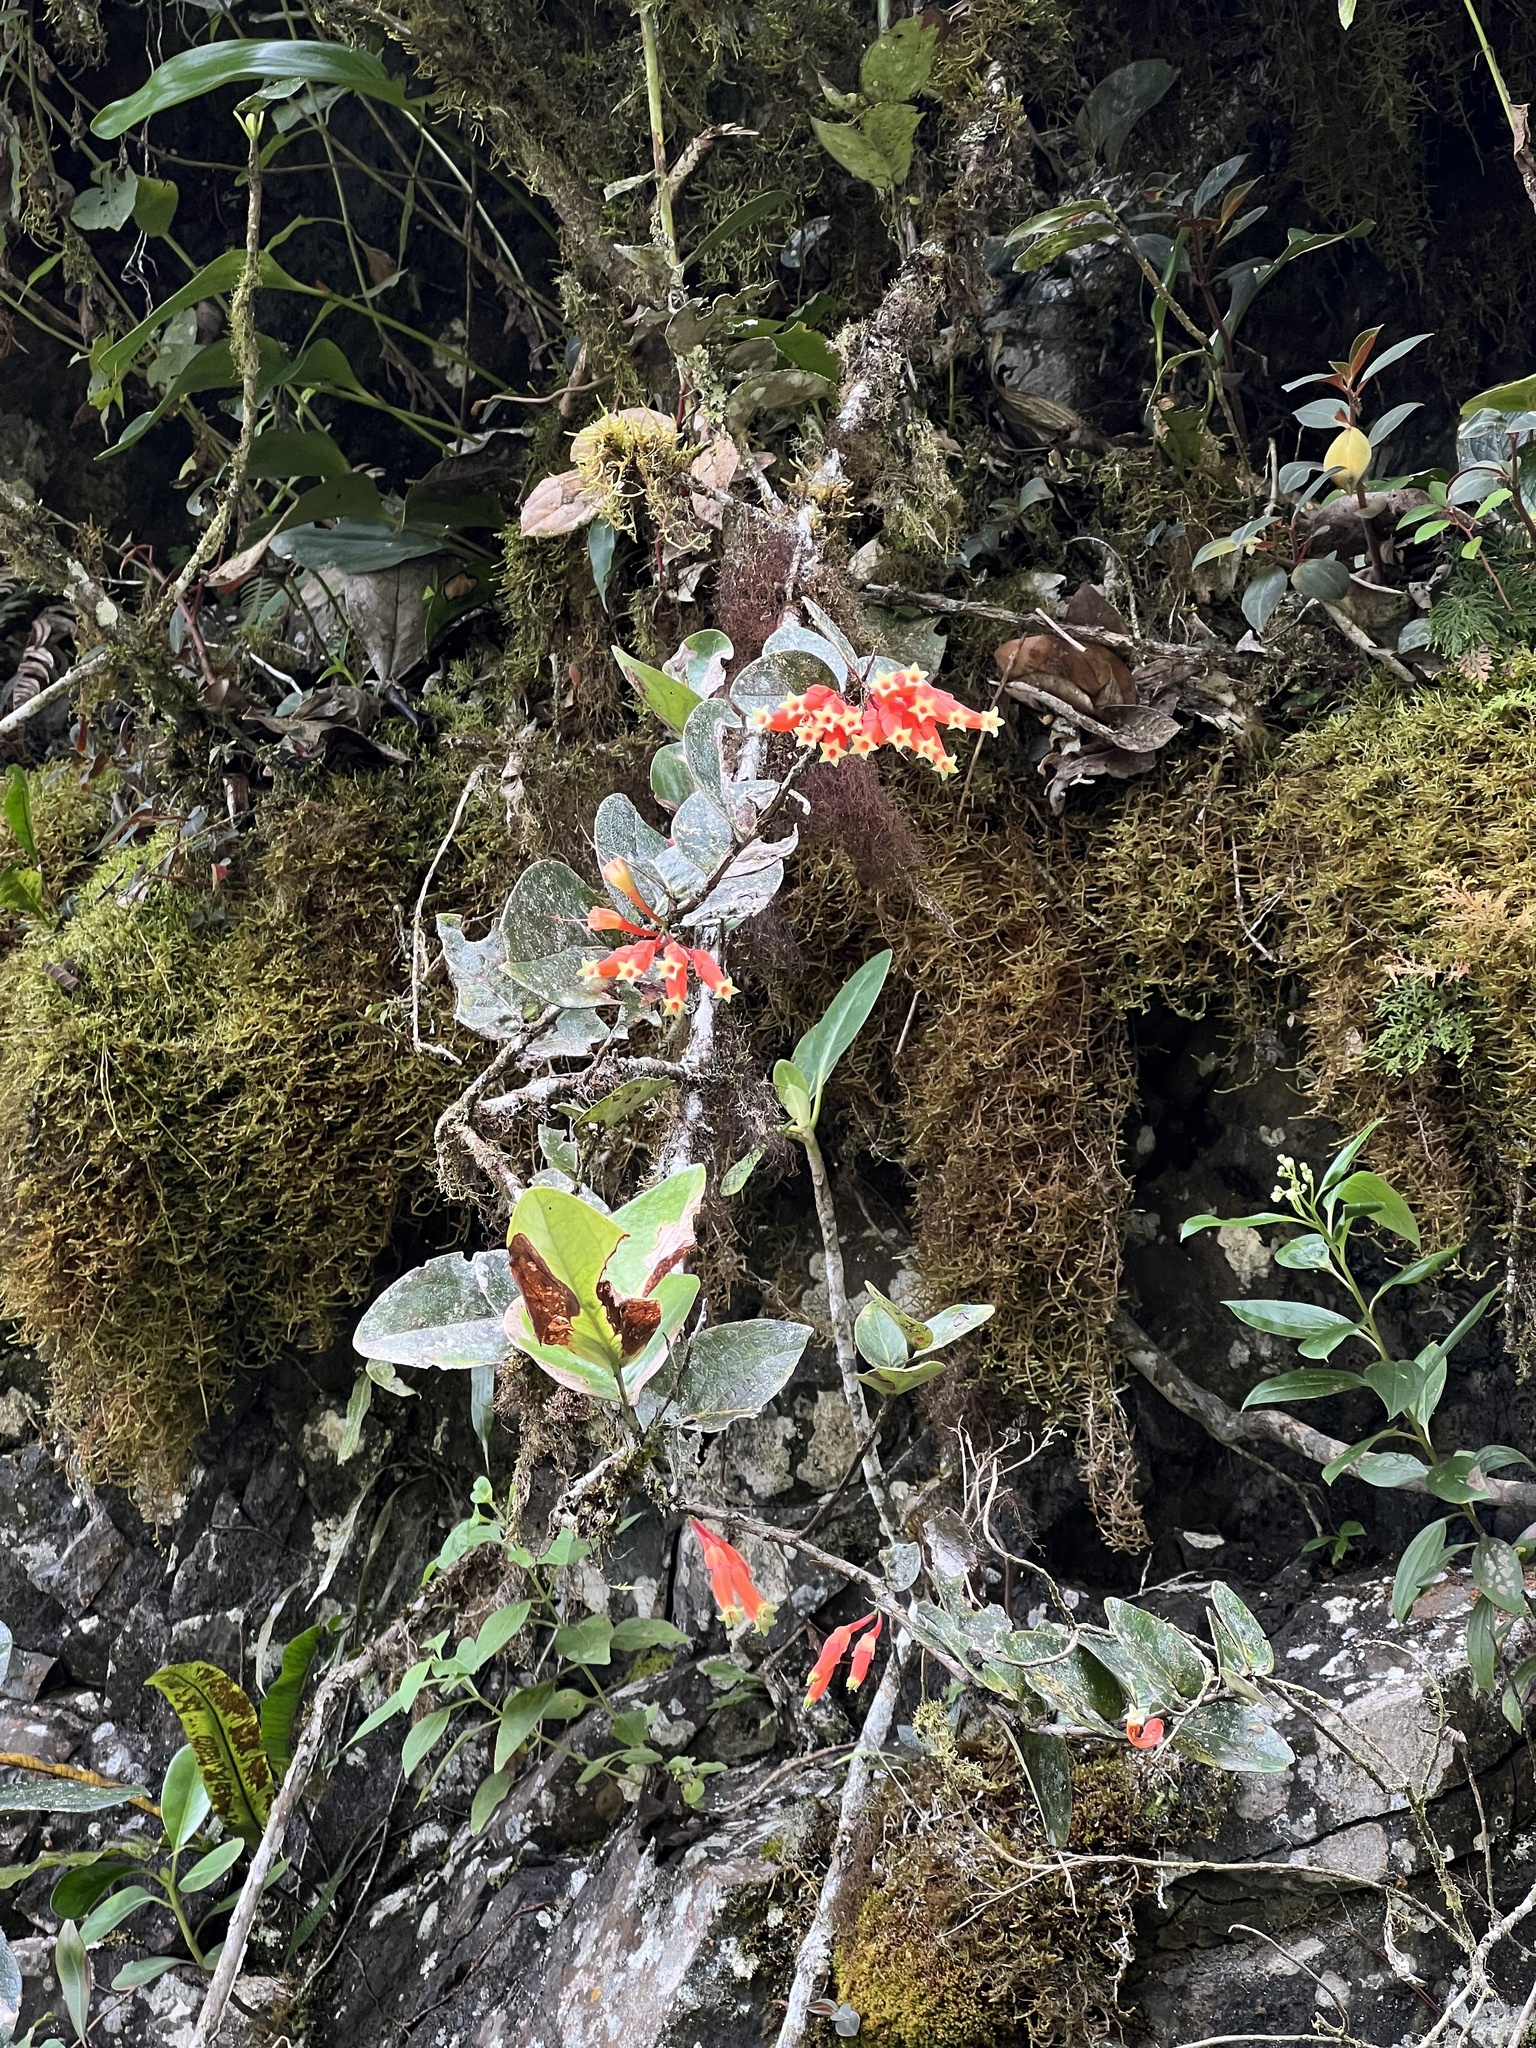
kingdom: Plantae
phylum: Tracheophyta
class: Magnoliopsida
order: Ericales
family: Ericaceae
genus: Macleania
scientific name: Macleania smithiana
